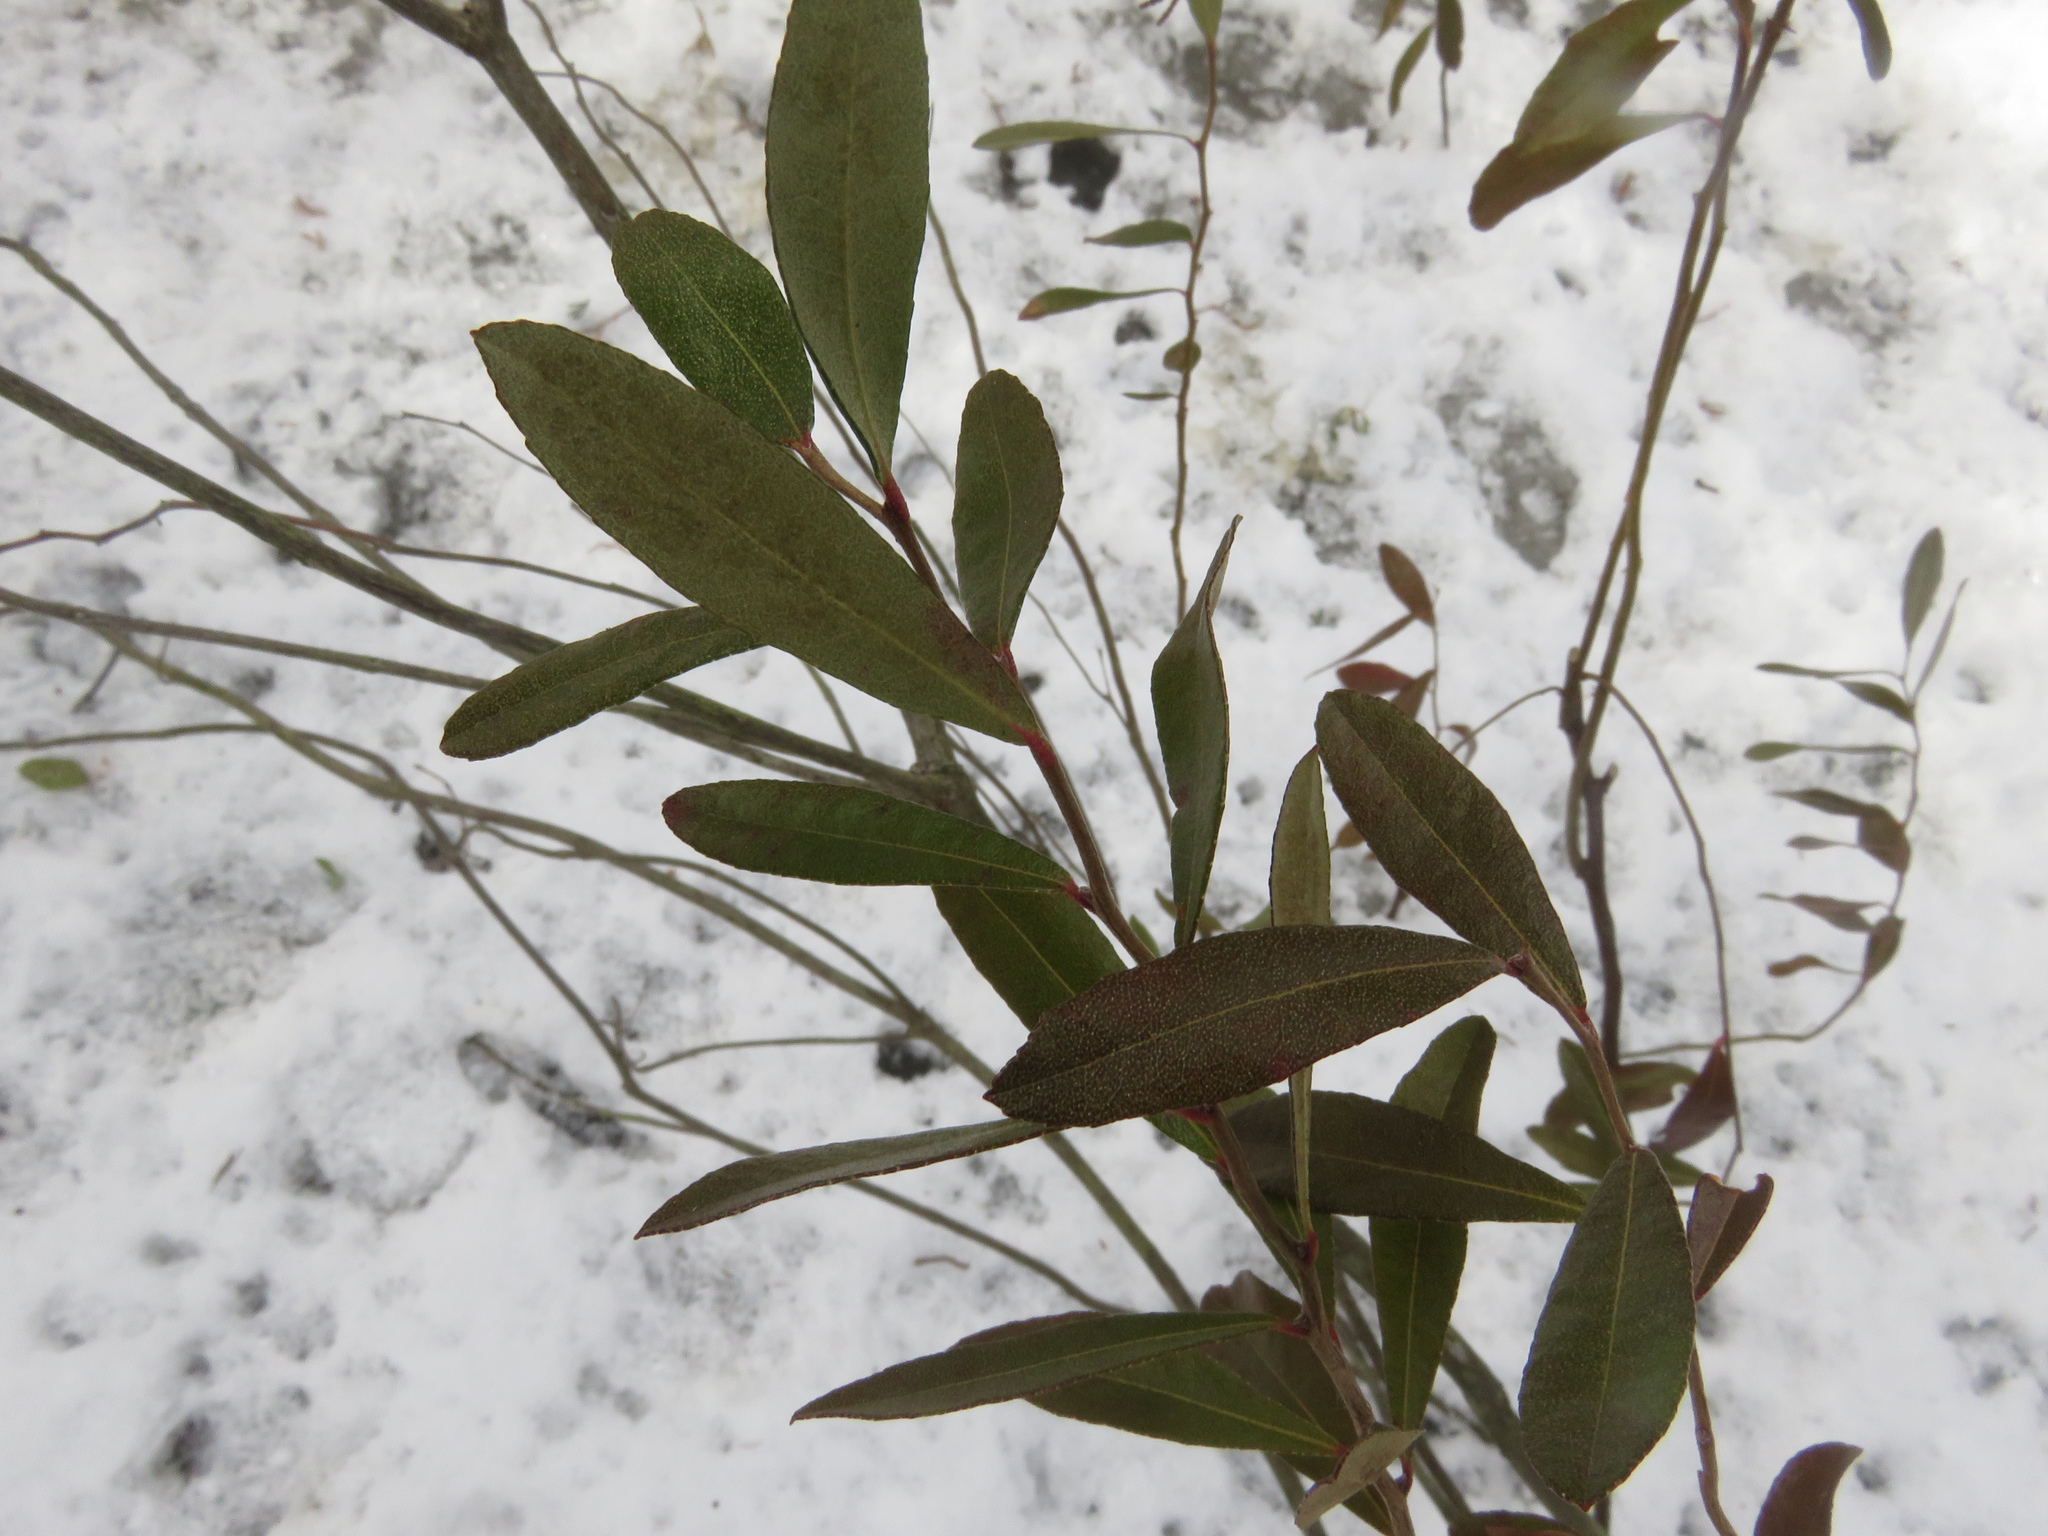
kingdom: Plantae
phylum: Tracheophyta
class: Magnoliopsida
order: Ericales
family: Ericaceae
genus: Chamaedaphne
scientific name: Chamaedaphne calyculata
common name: Leatherleaf
